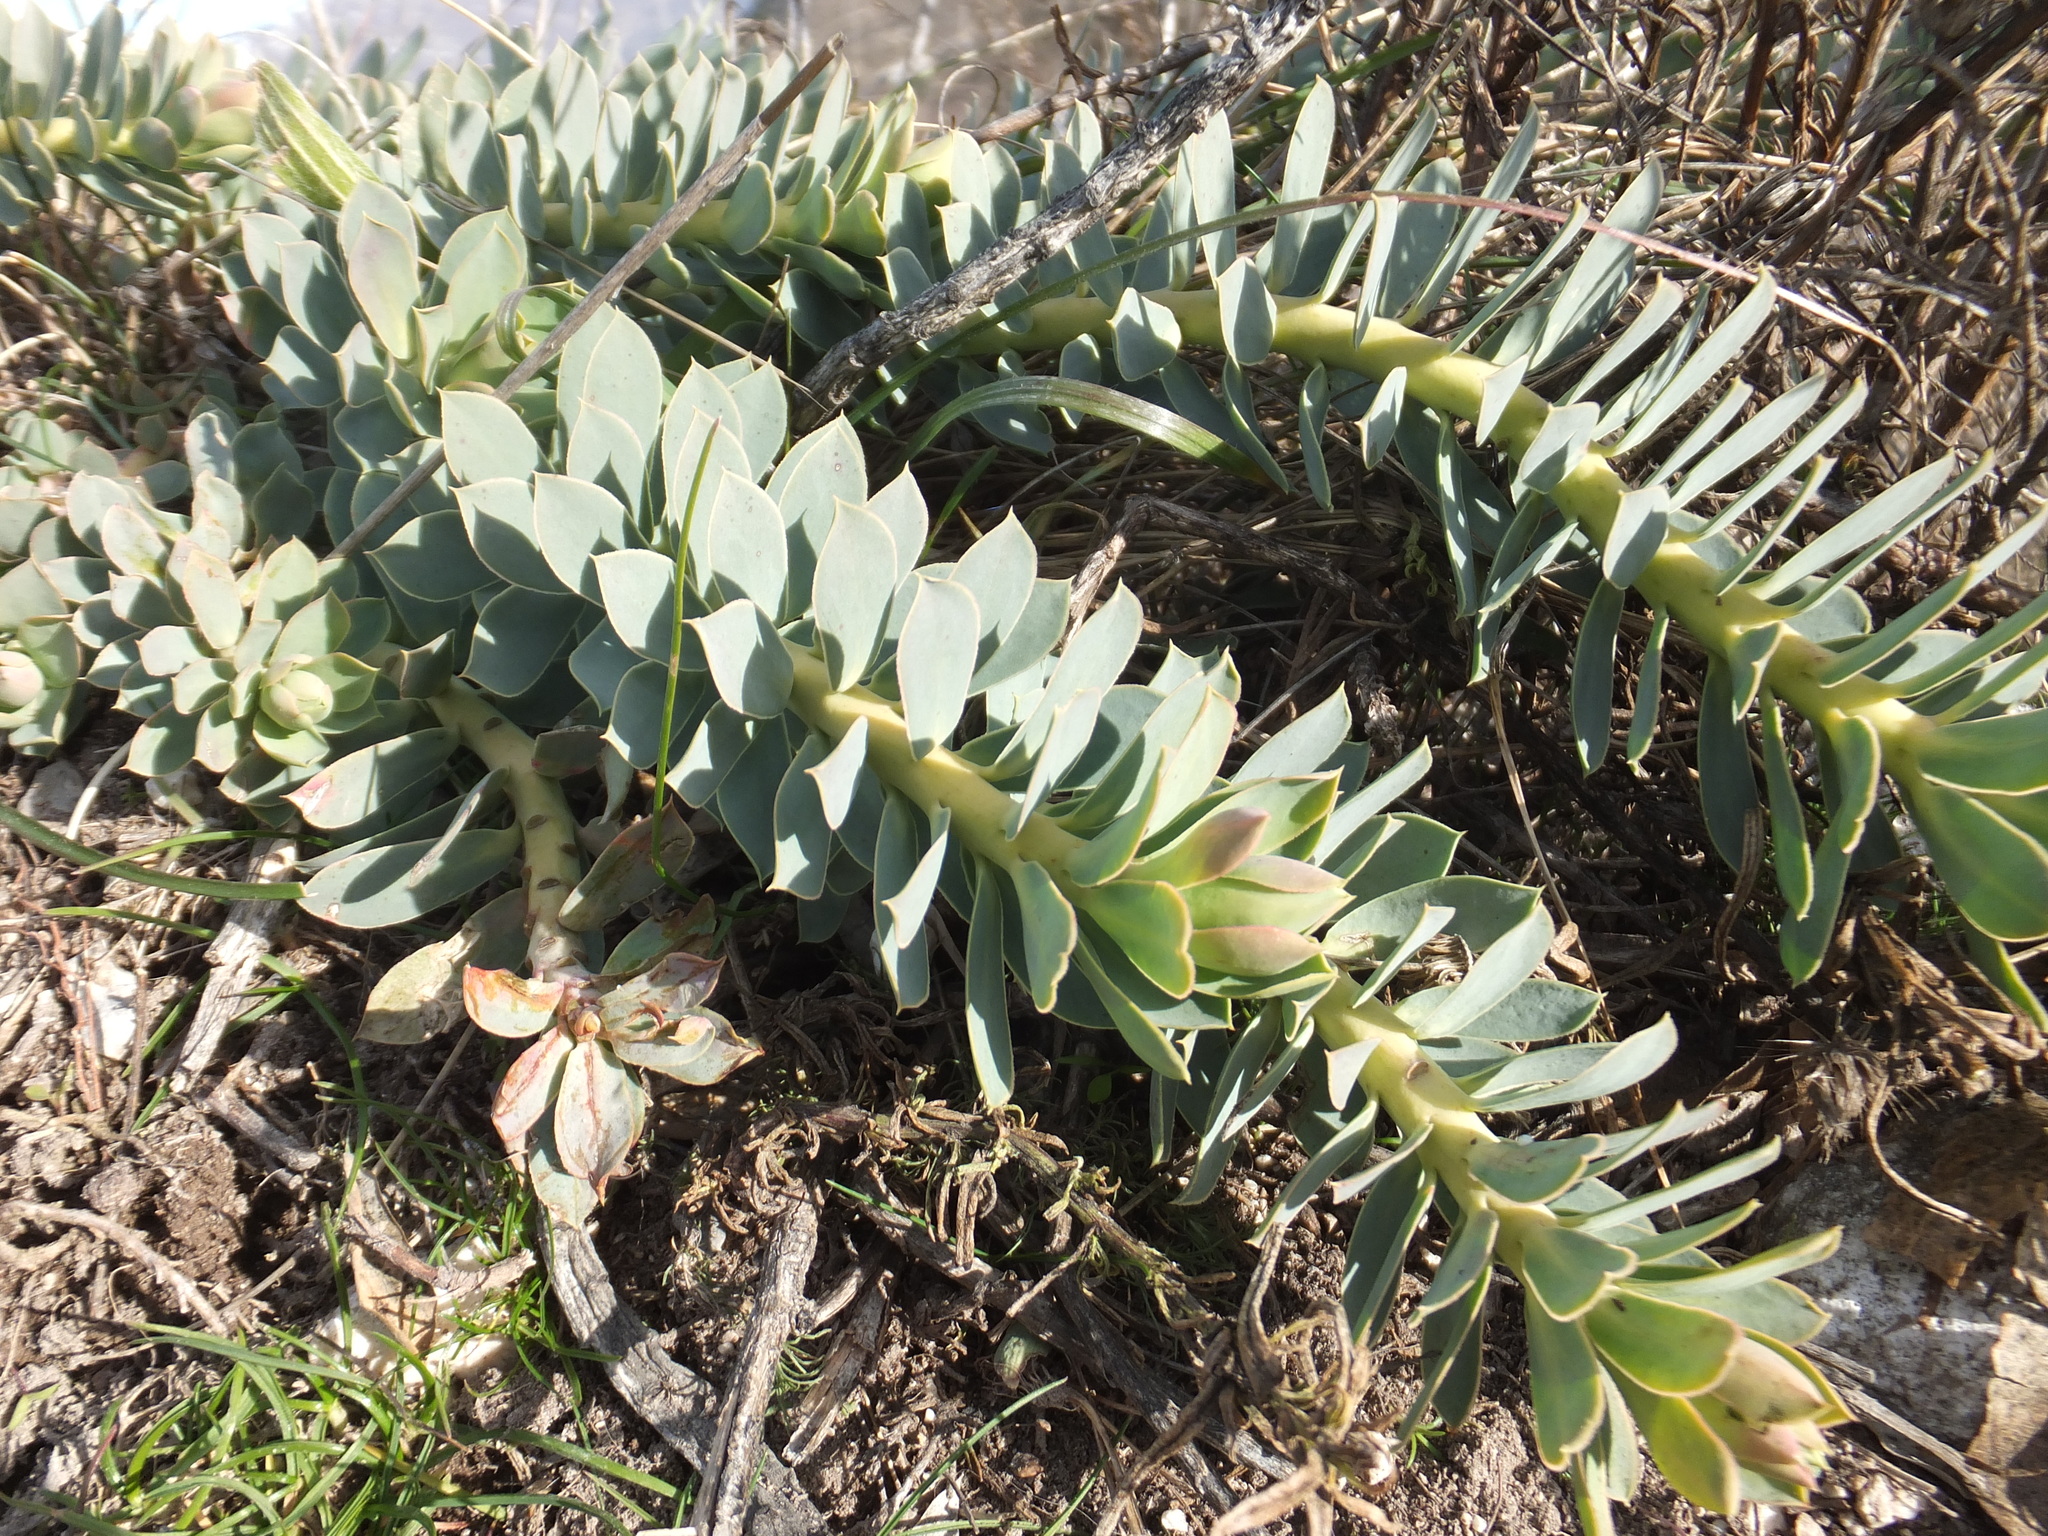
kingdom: Plantae
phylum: Tracheophyta
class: Magnoliopsida
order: Malpighiales
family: Euphorbiaceae
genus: Euphorbia
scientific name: Euphorbia myrsinites
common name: Myrtle spurge
